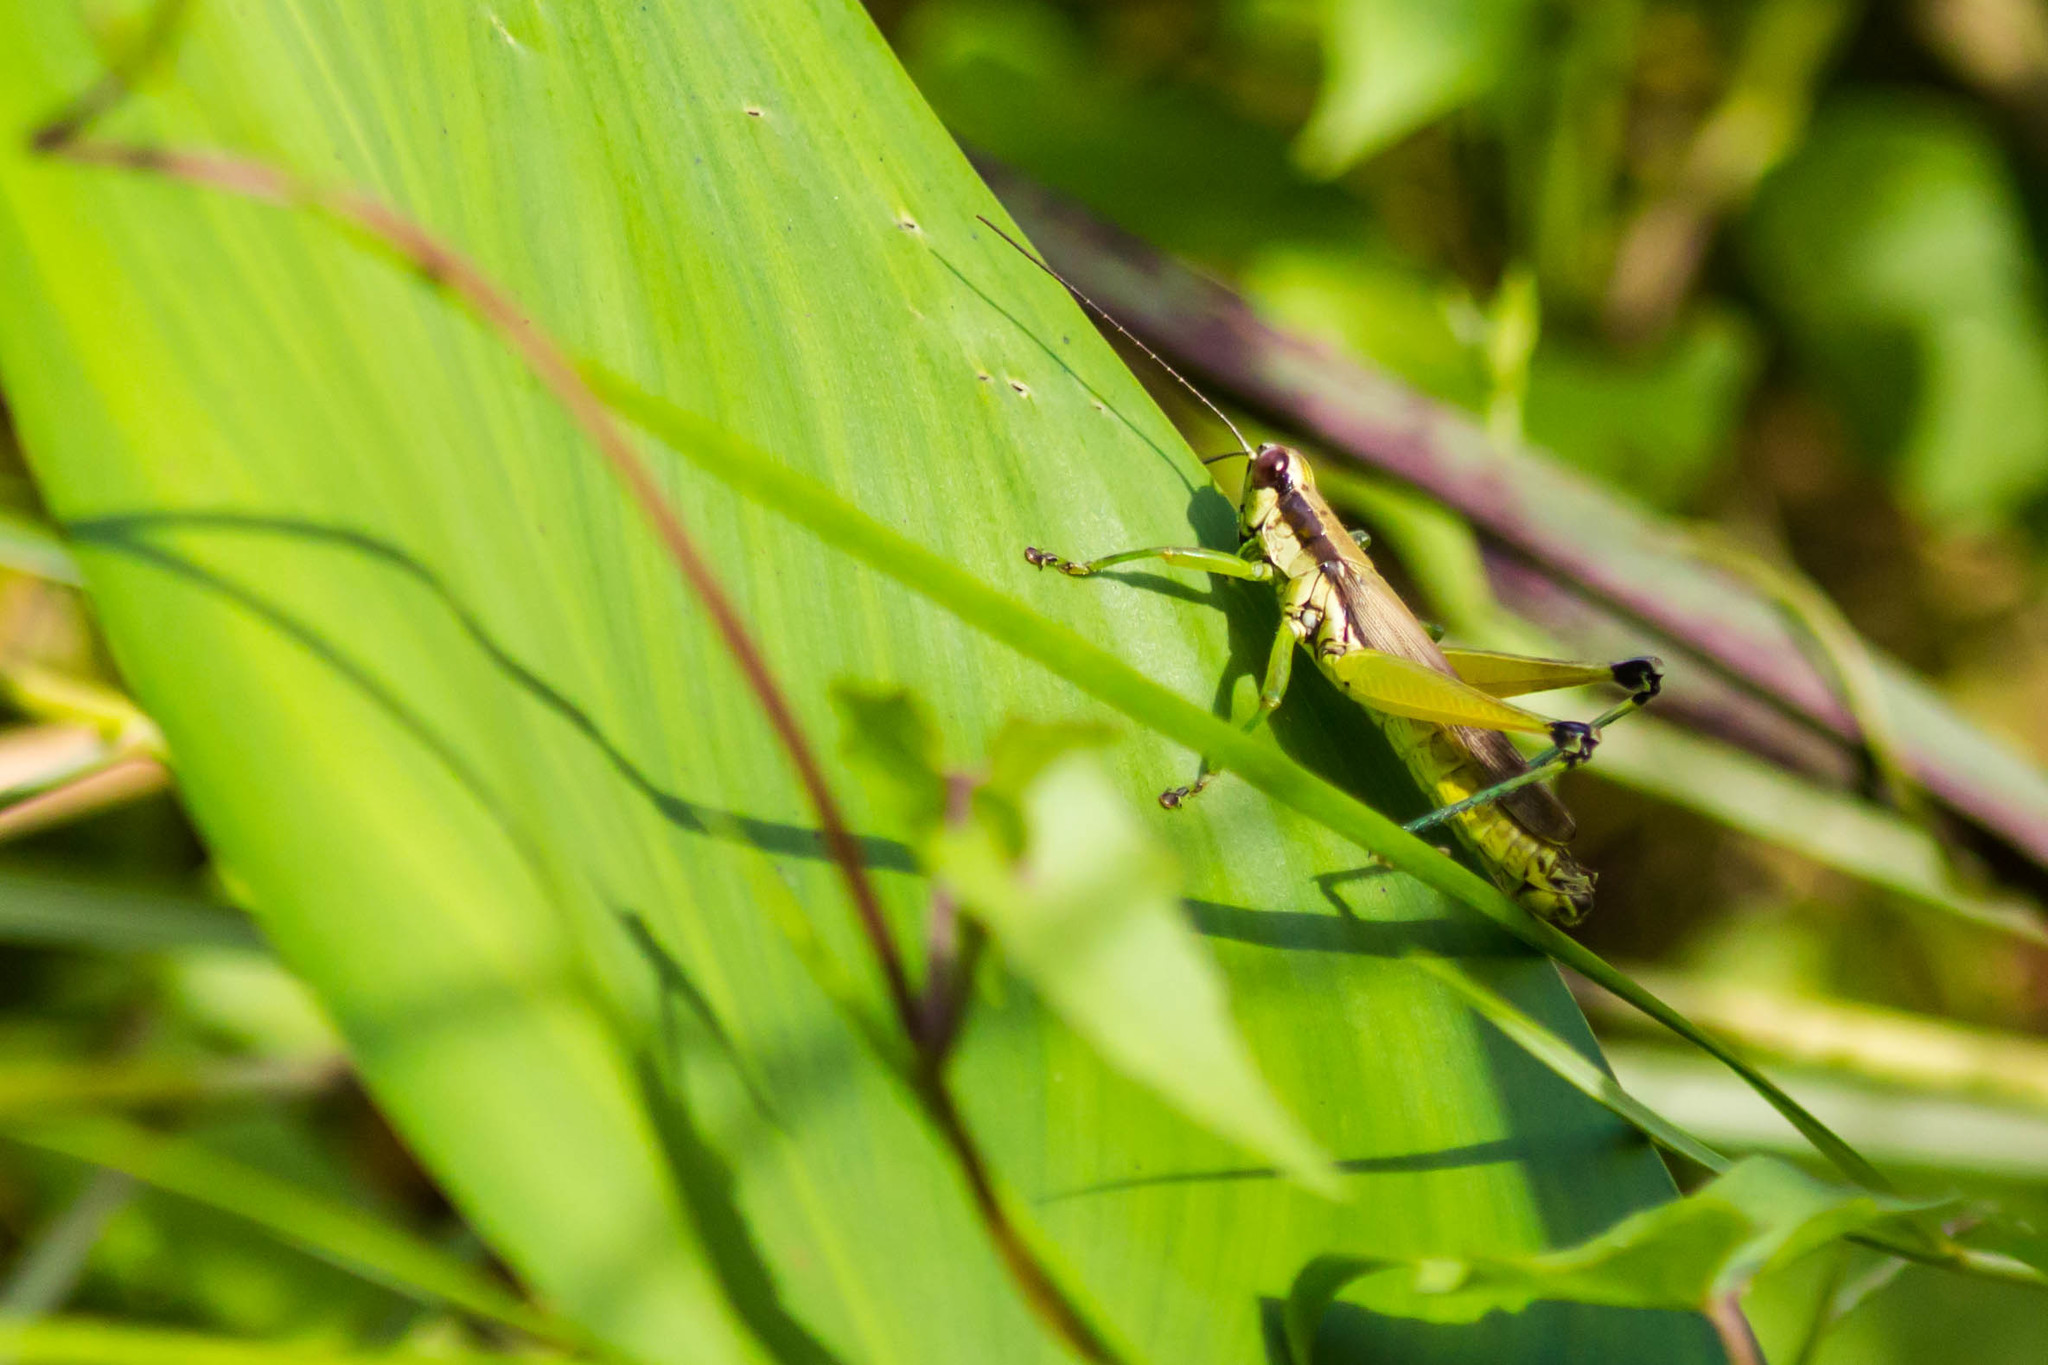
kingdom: Animalia
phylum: Arthropoda
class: Insecta
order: Orthoptera
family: Acrididae
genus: Paroxya
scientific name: Paroxya clavuligera
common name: Olive-green swamp grasshopper
